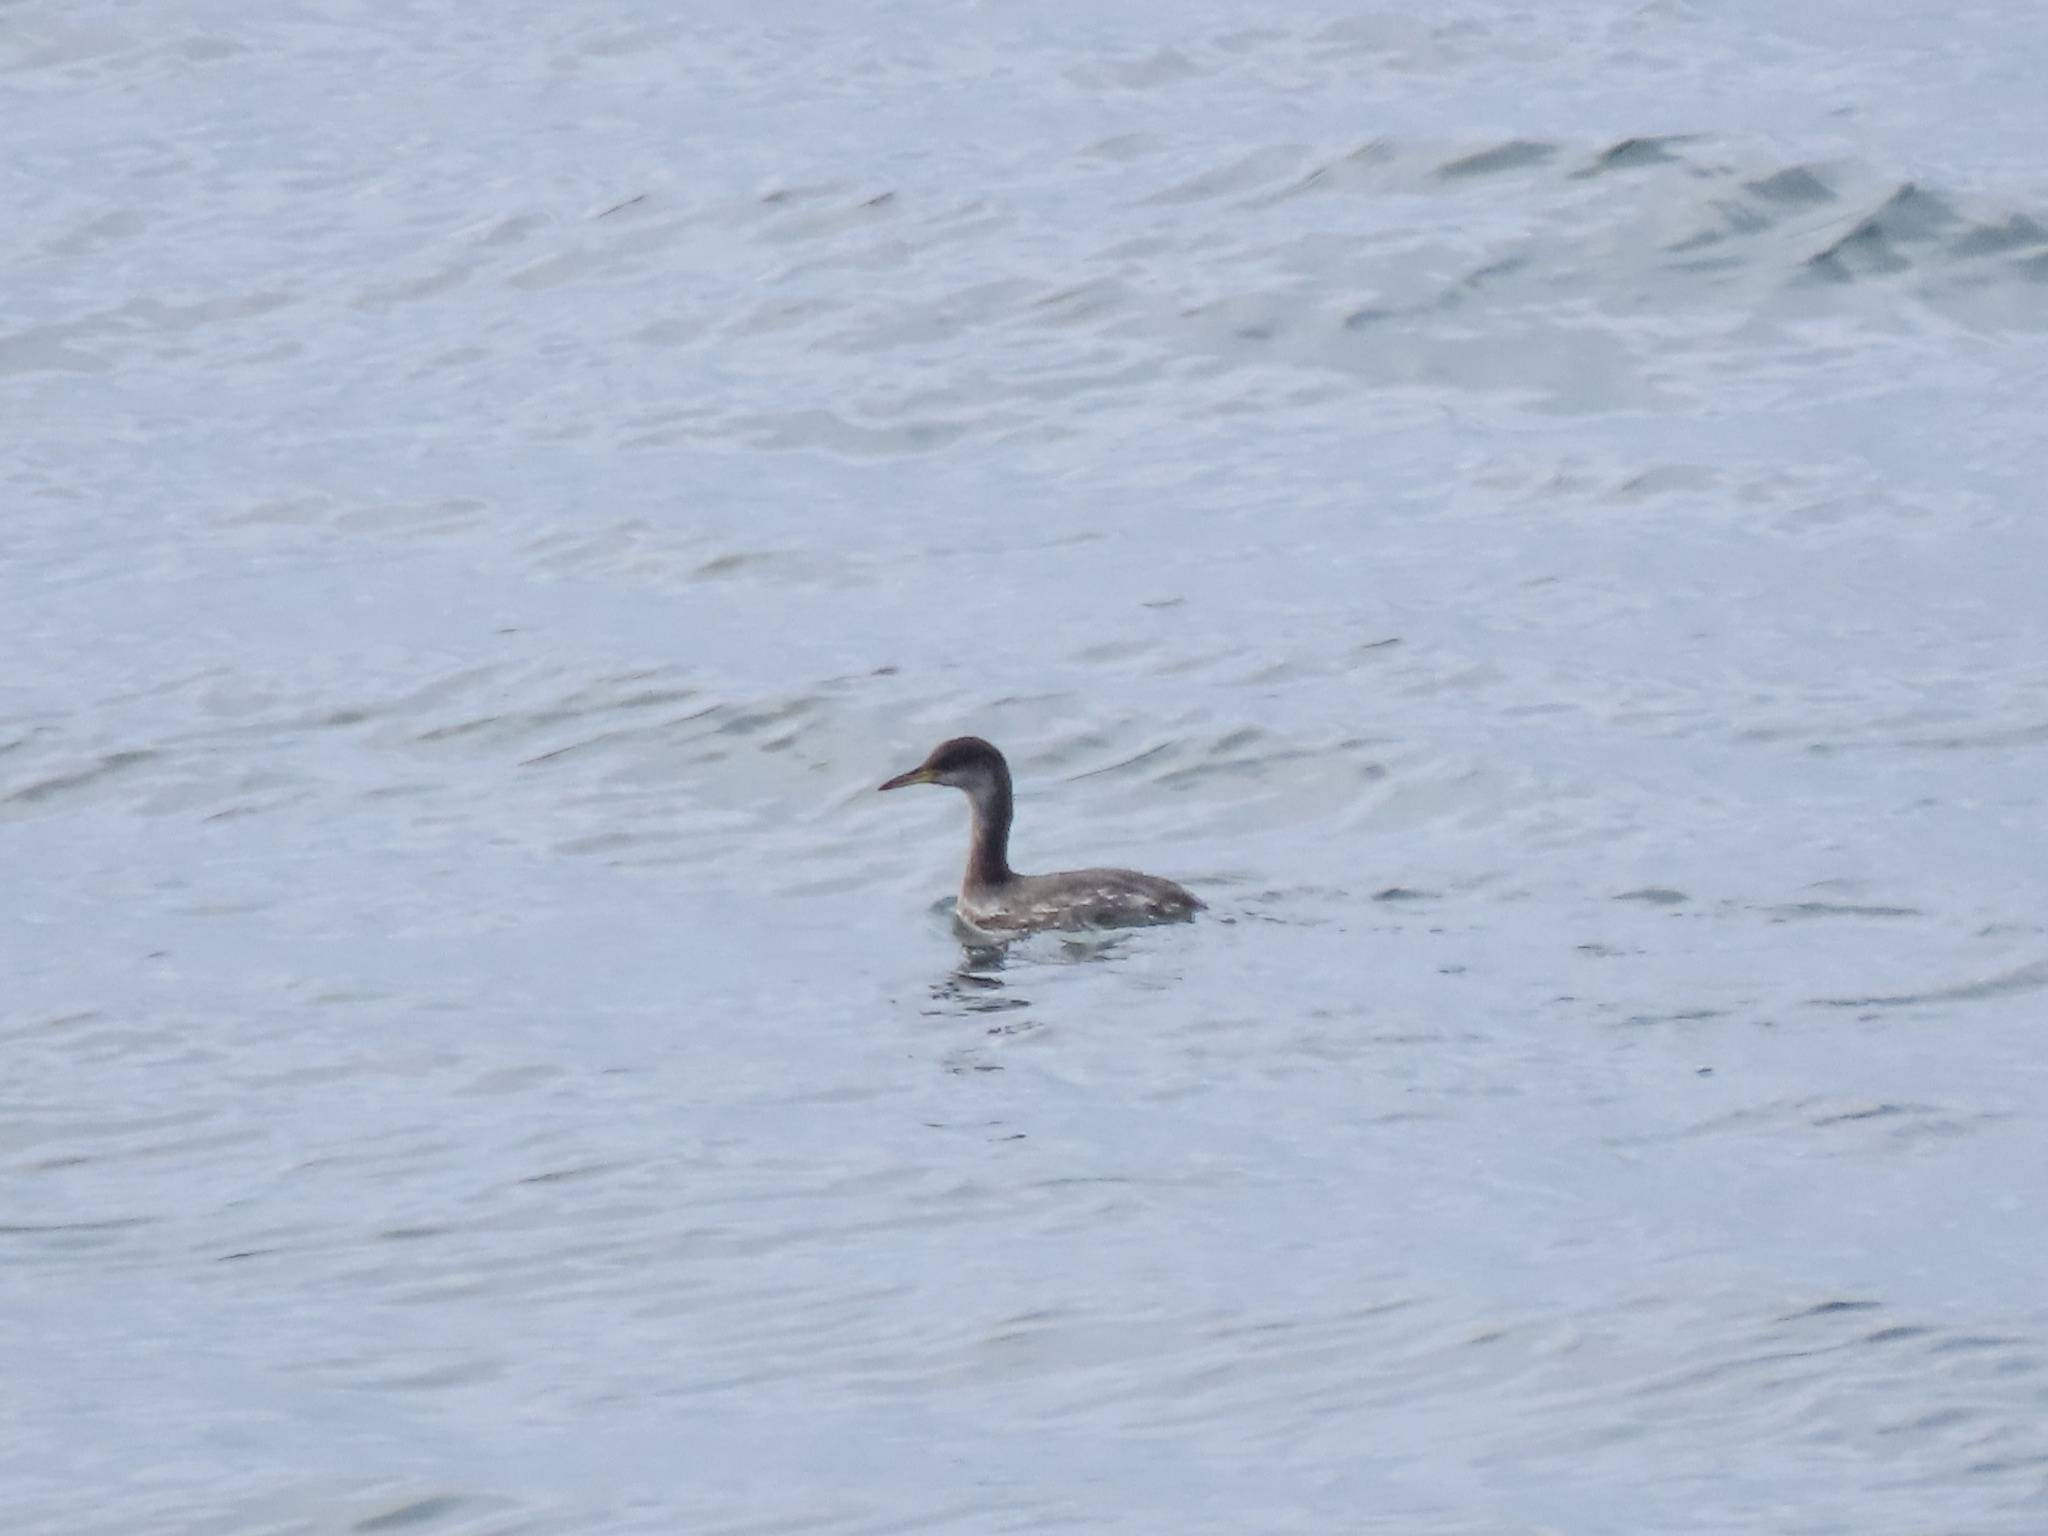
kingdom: Animalia
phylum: Chordata
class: Aves
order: Podicipediformes
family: Podicipedidae
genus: Podiceps
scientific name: Podiceps grisegena
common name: Red-necked grebe
